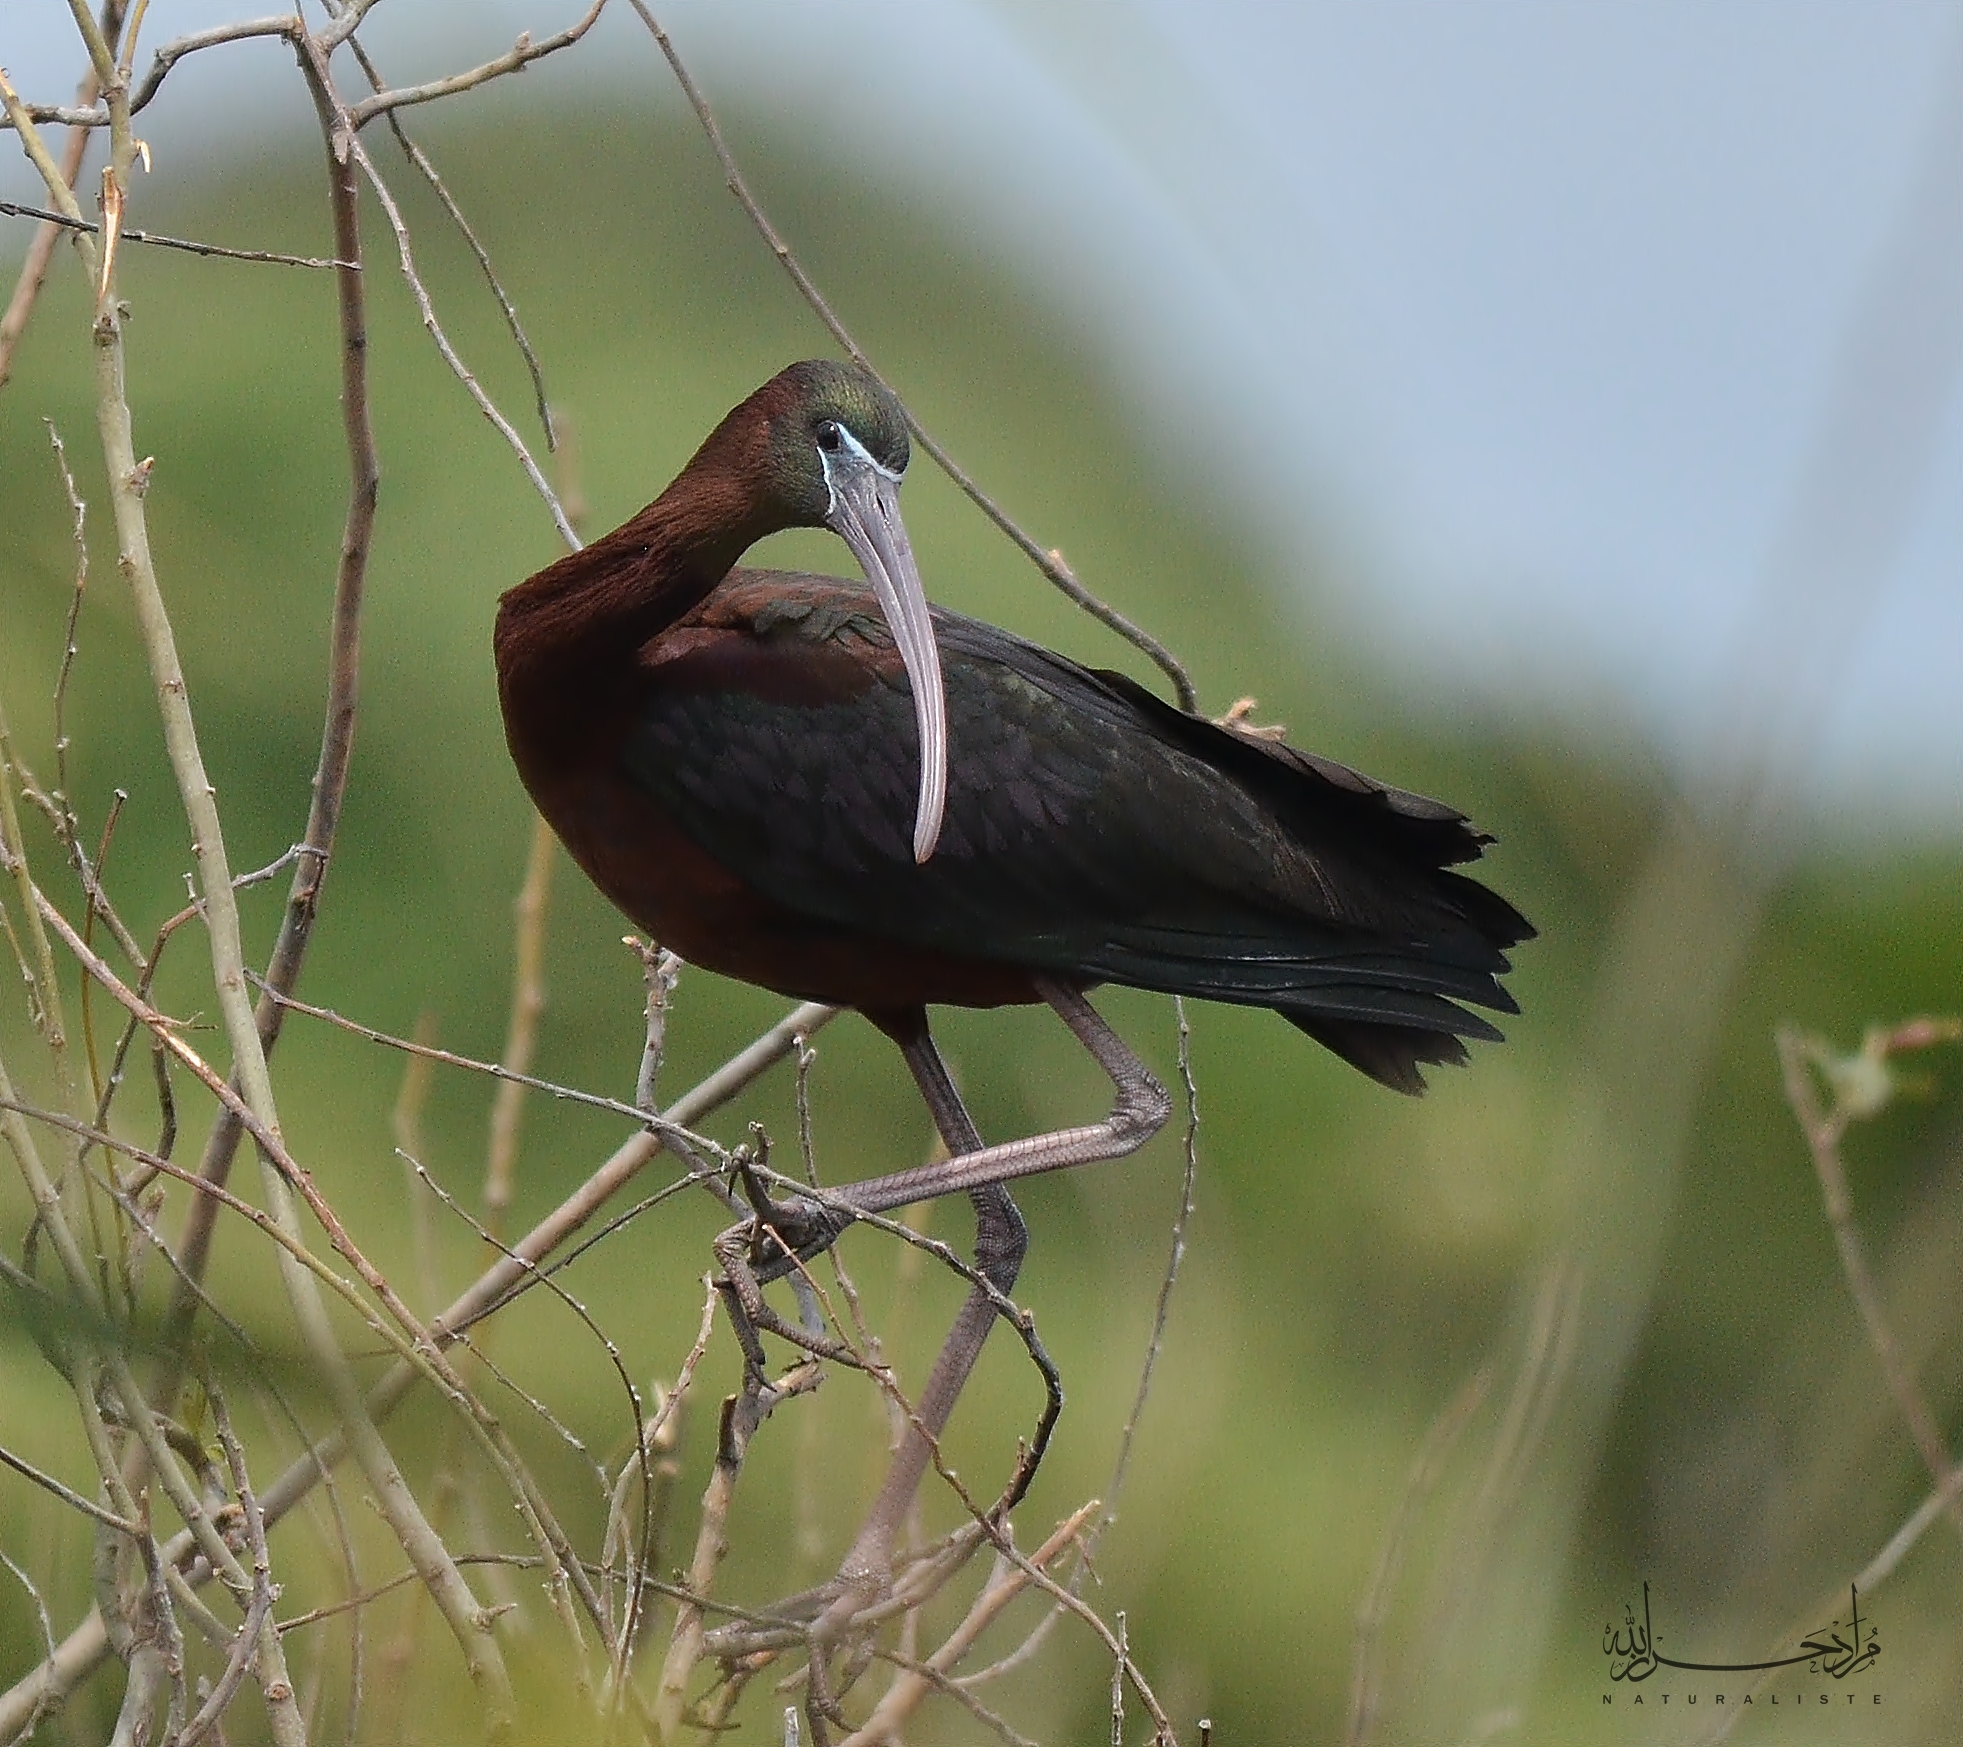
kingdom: Animalia
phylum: Chordata
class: Aves
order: Pelecaniformes
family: Threskiornithidae
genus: Plegadis
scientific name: Plegadis falcinellus
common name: Glossy ibis
